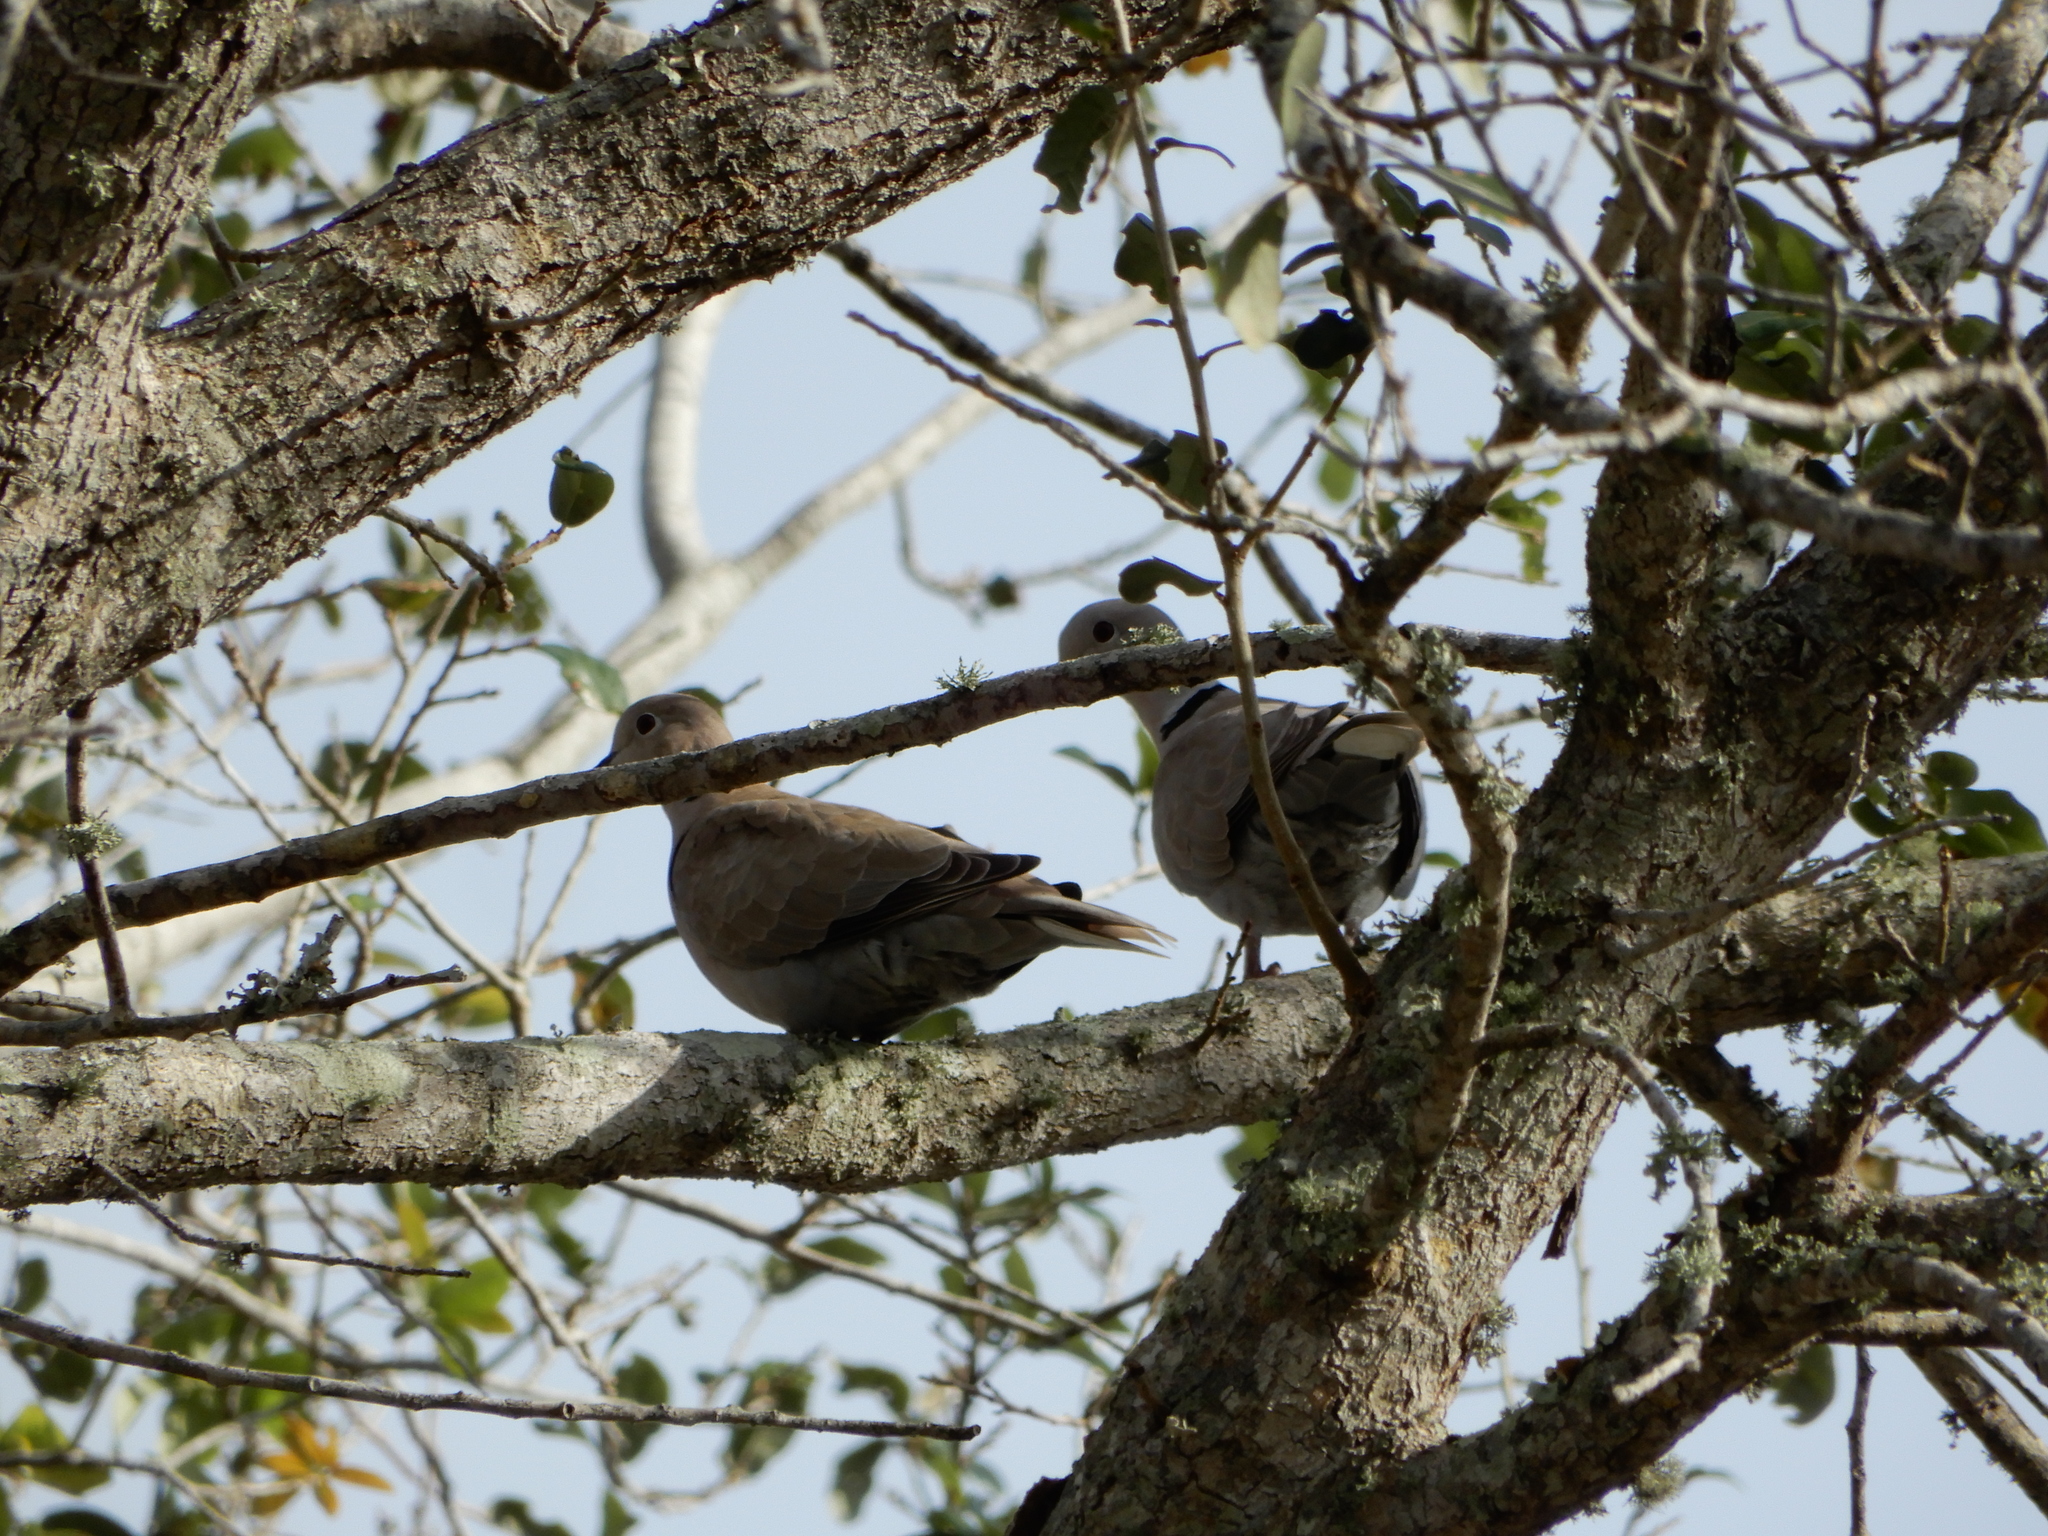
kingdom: Animalia
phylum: Chordata
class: Aves
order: Columbiformes
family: Columbidae
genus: Streptopelia
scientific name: Streptopelia decaocto
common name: Eurasian collared dove
